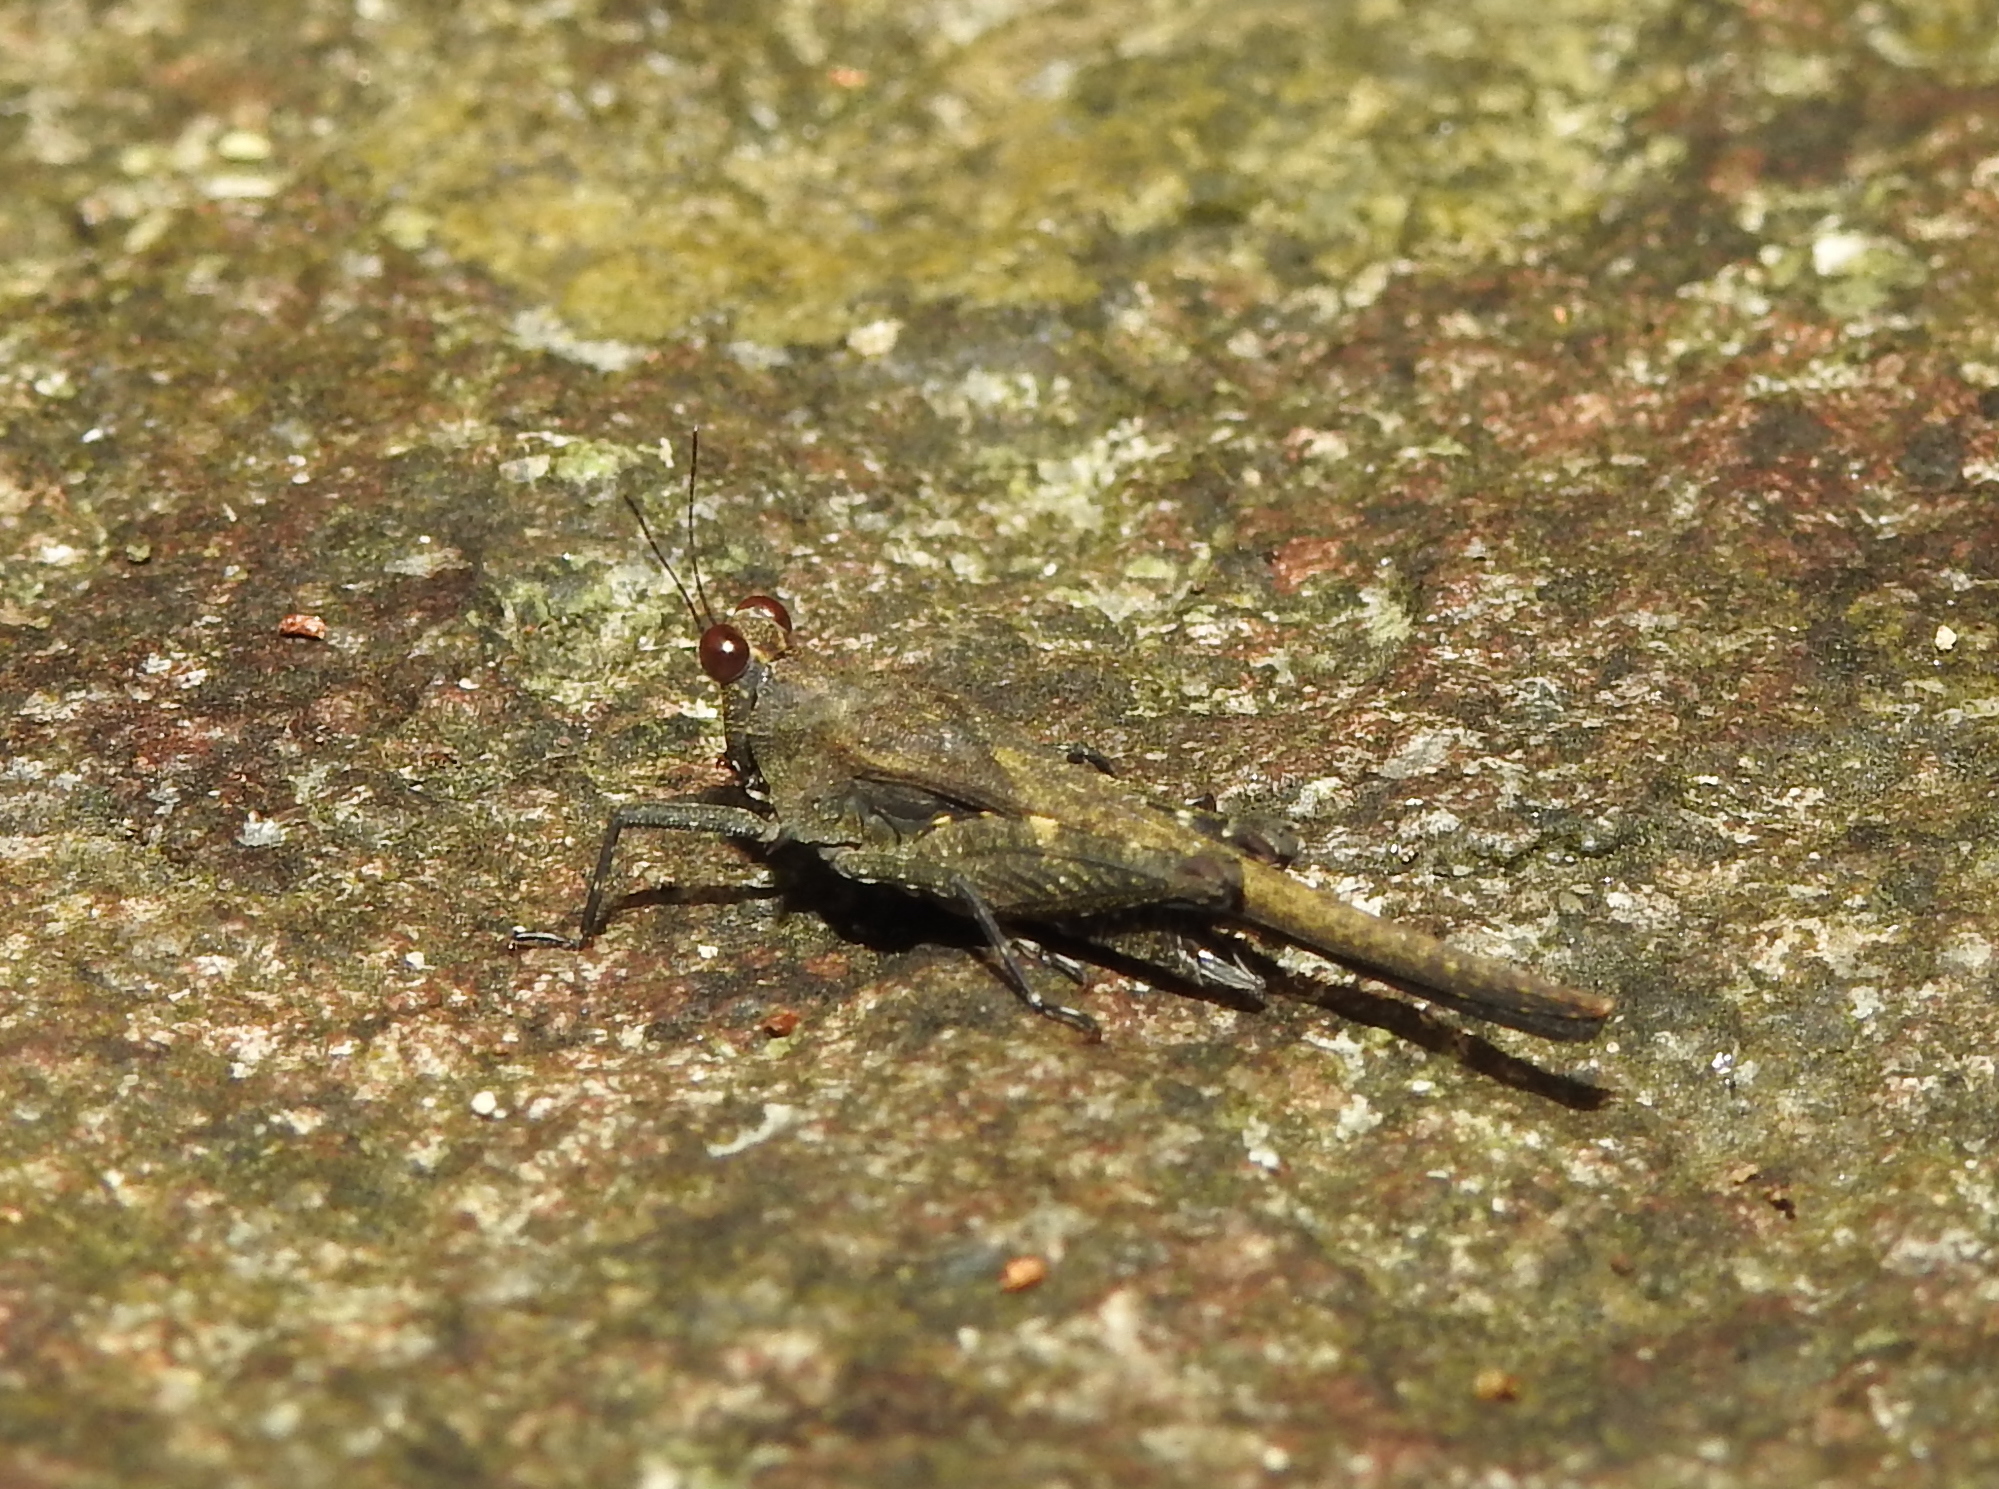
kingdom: Animalia
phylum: Arthropoda
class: Insecta
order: Orthoptera
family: Tetrigidae
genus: Eucriotettix
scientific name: Eucriotettix flavopictus
